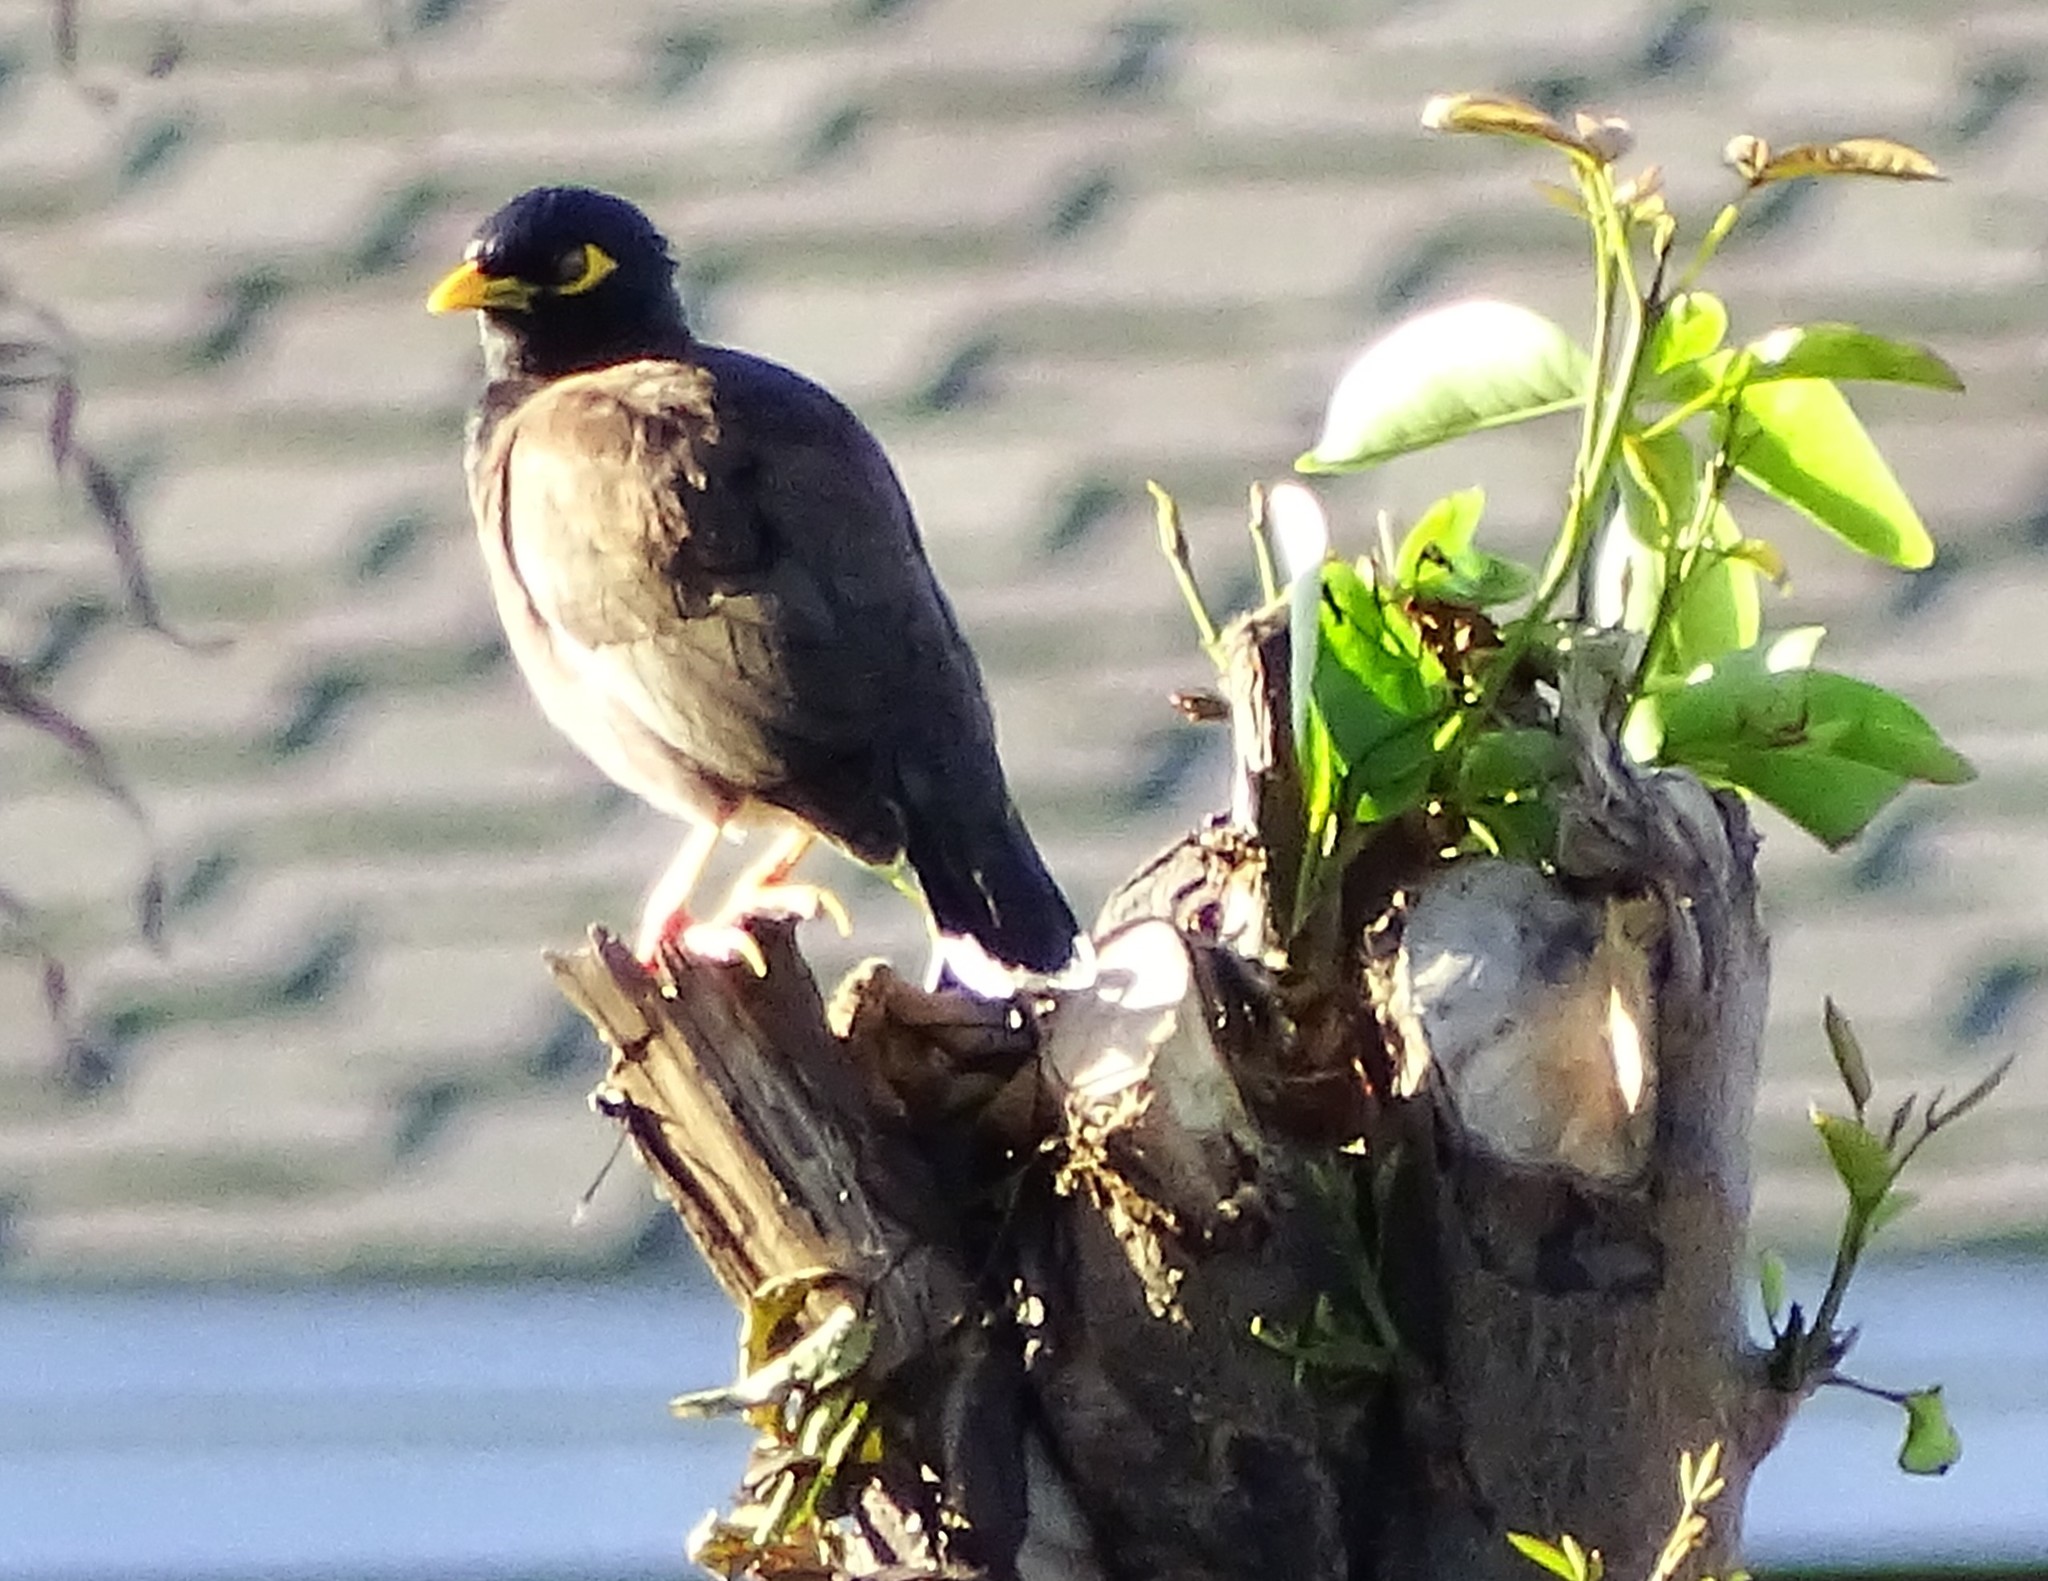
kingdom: Animalia
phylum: Chordata
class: Aves
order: Passeriformes
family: Sturnidae
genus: Acridotheres
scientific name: Acridotheres tristis
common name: Common myna
